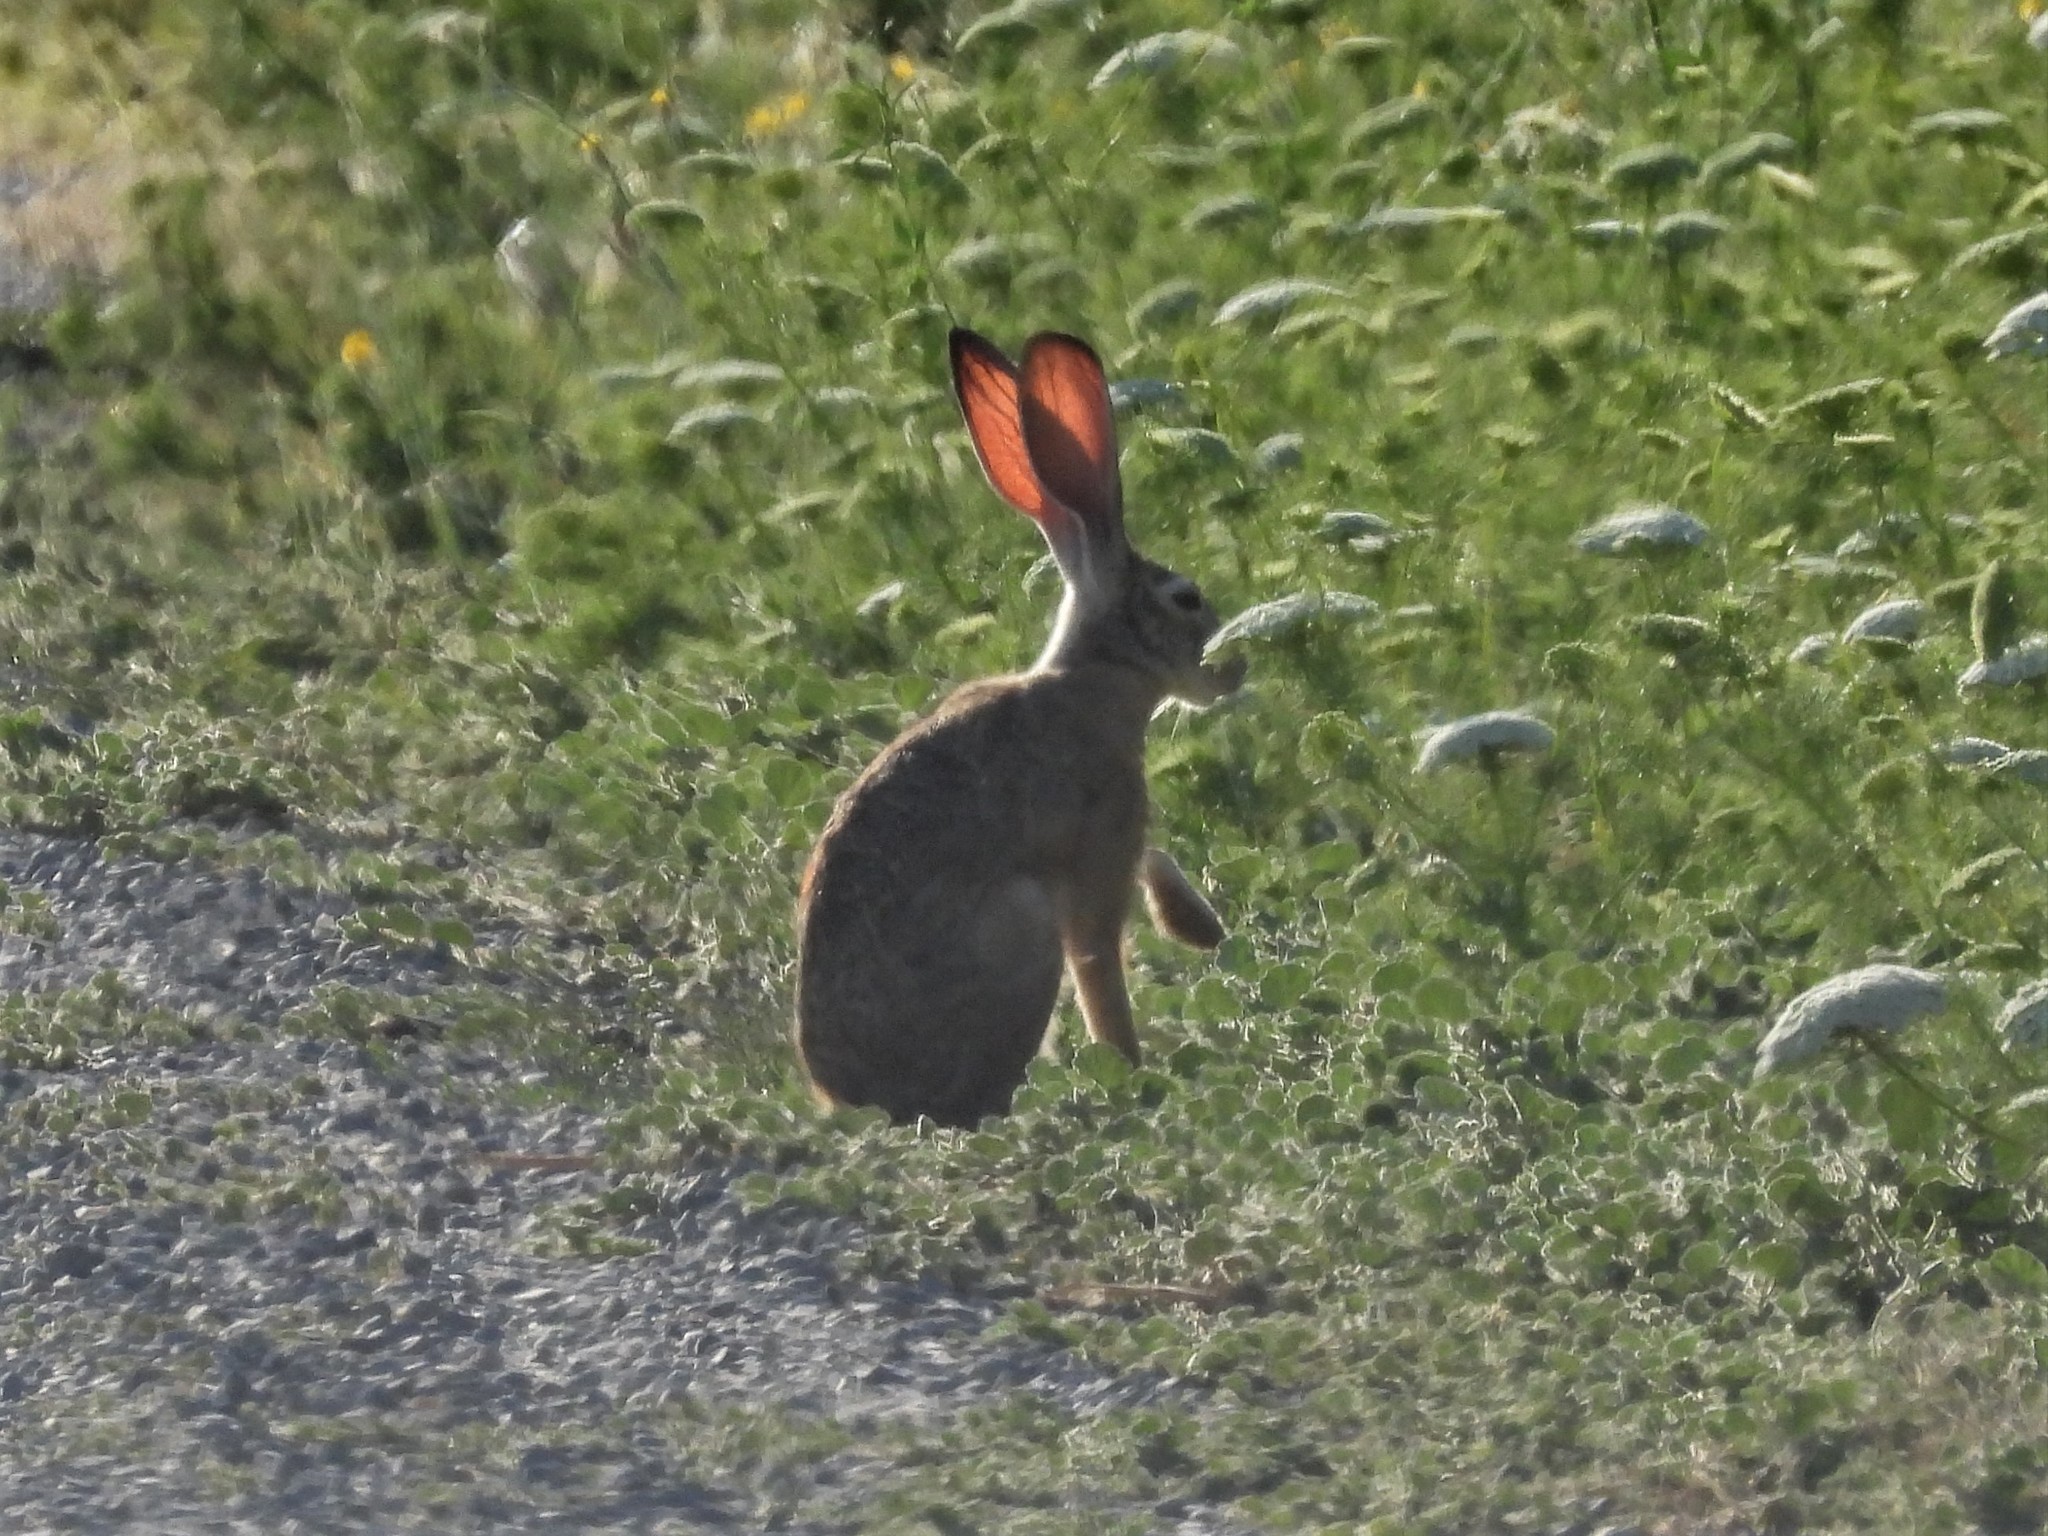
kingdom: Animalia
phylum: Chordata
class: Mammalia
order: Lagomorpha
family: Leporidae
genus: Lepus
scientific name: Lepus californicus
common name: Black-tailed jackrabbit
